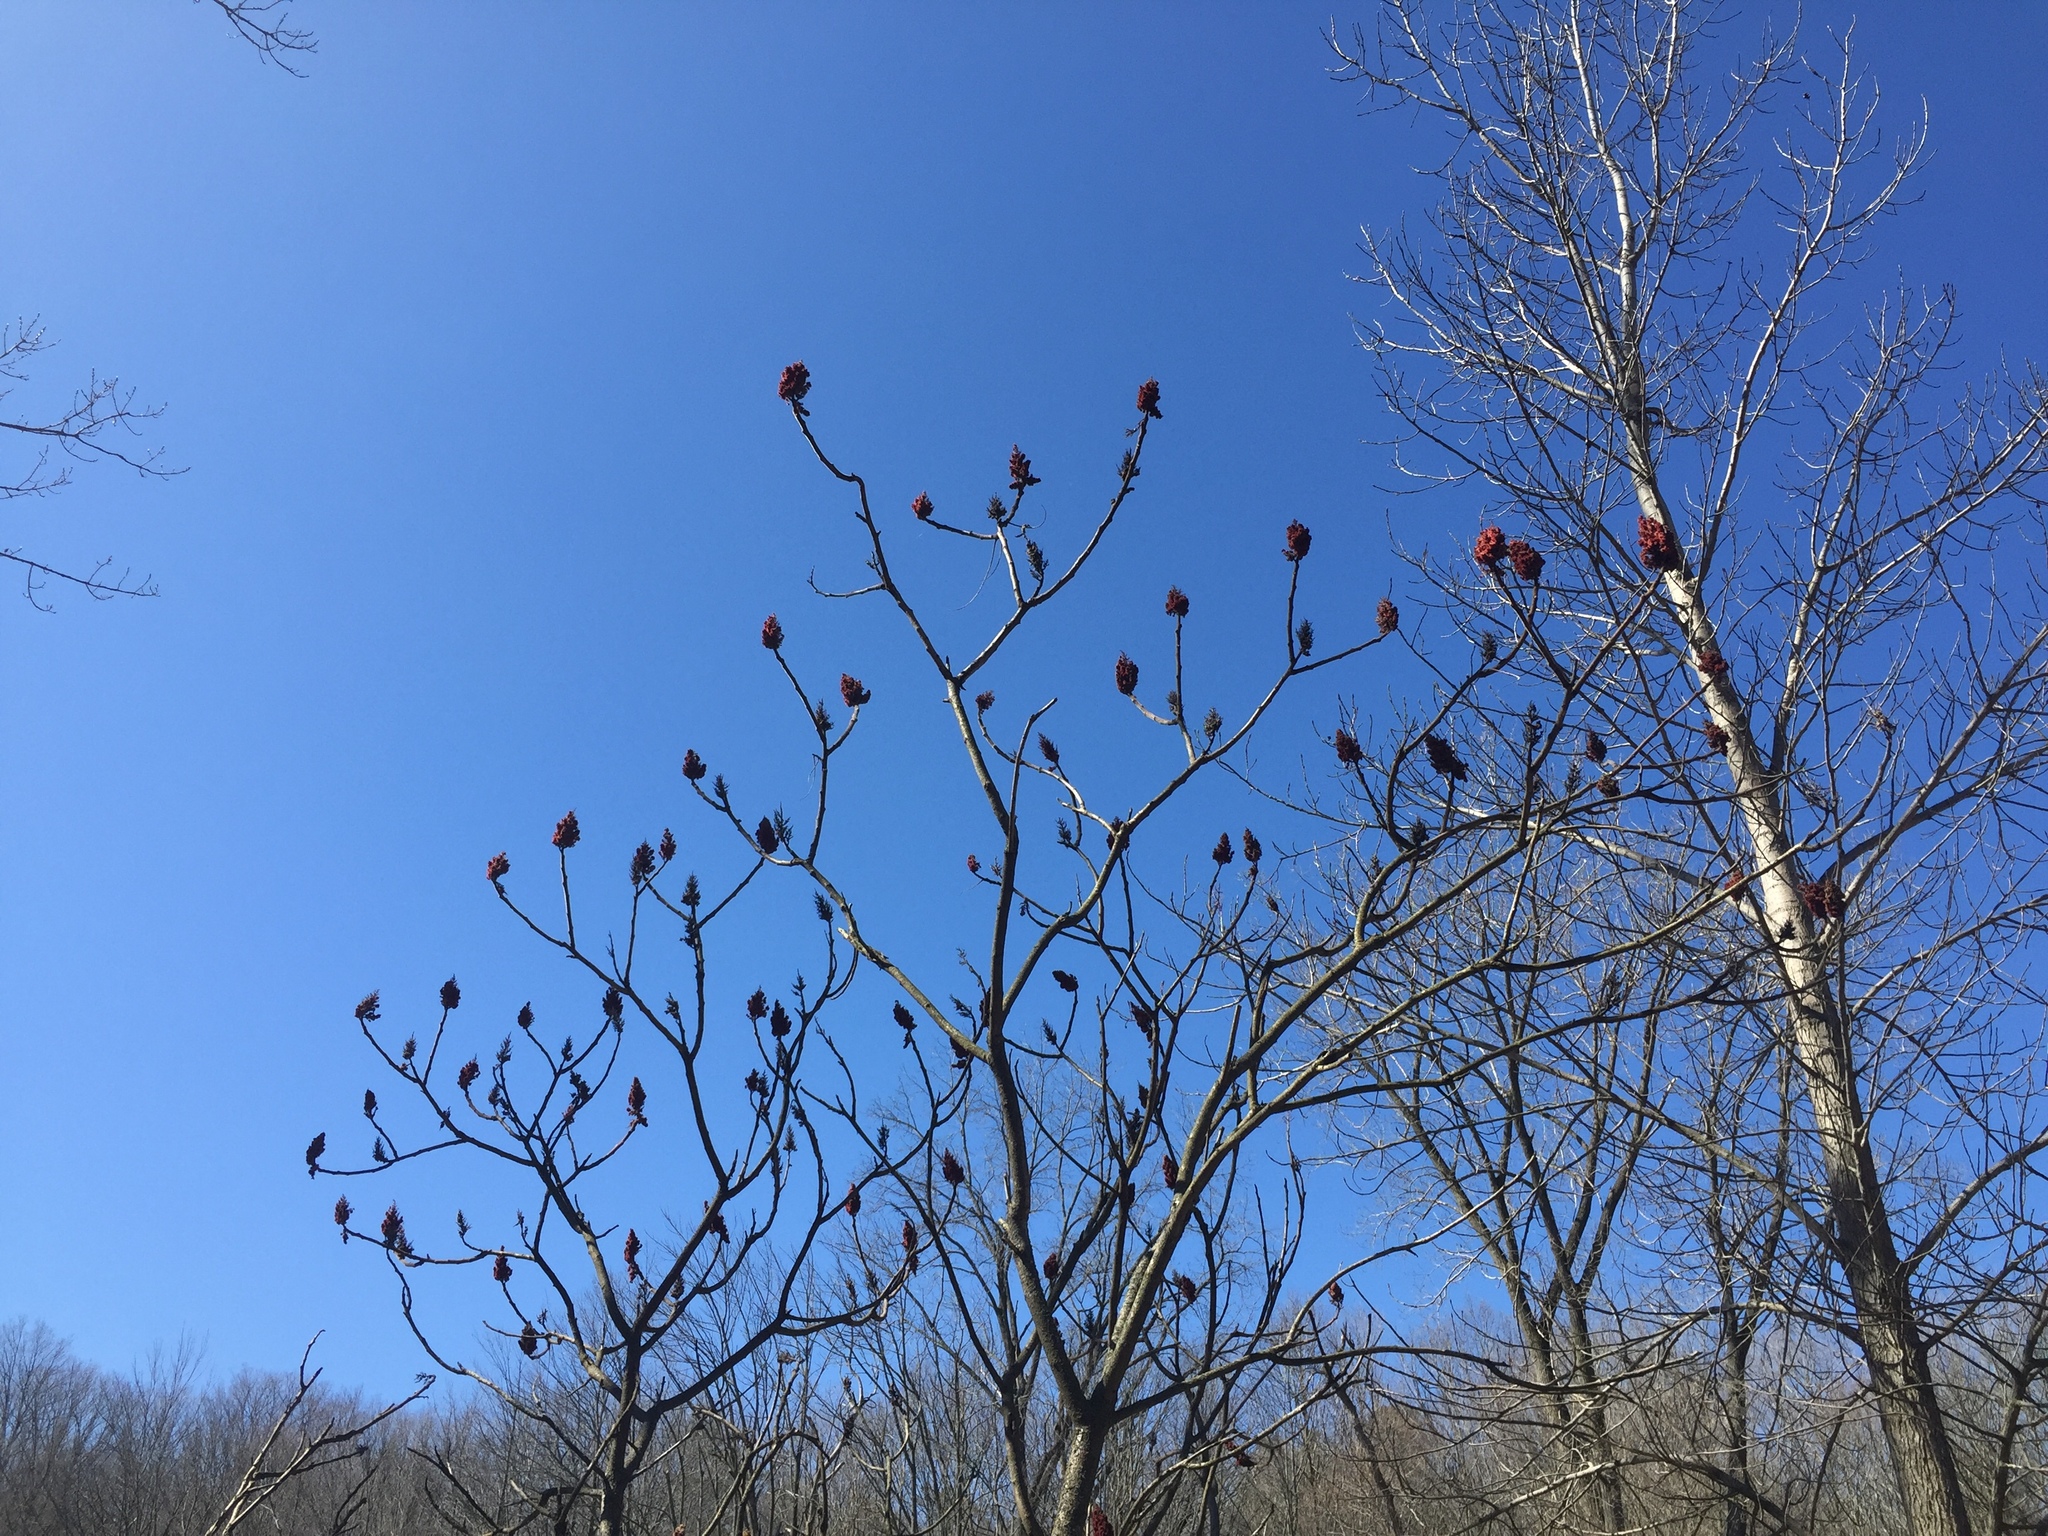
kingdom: Plantae
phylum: Tracheophyta
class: Magnoliopsida
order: Sapindales
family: Anacardiaceae
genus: Rhus
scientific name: Rhus typhina
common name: Staghorn sumac
